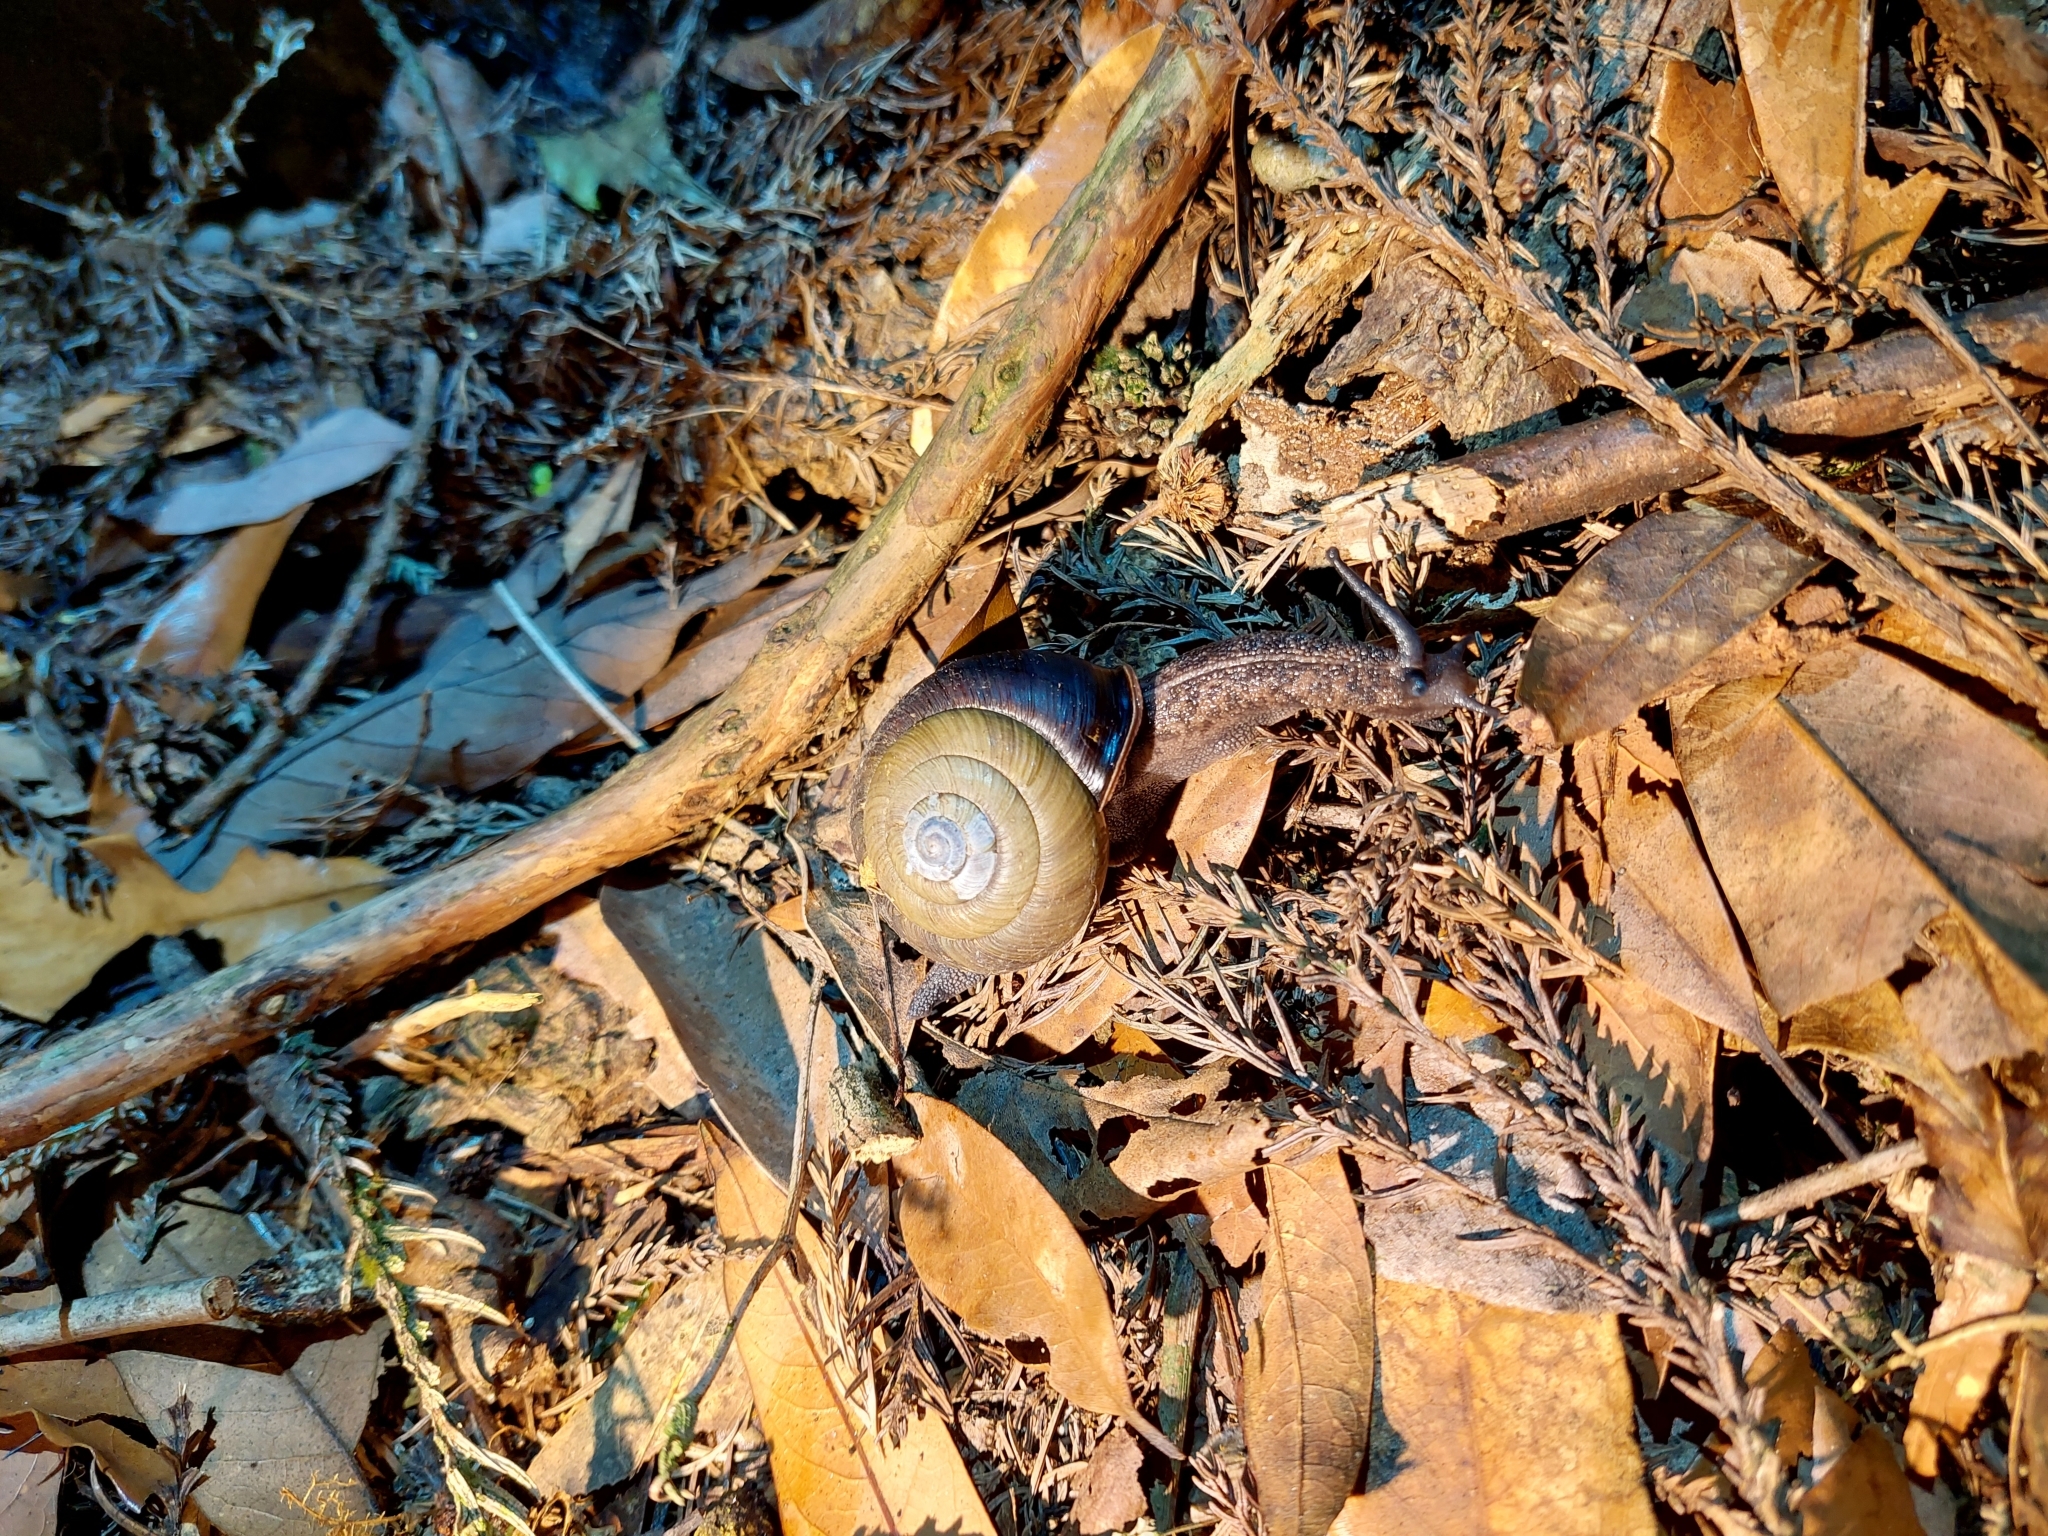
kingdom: Animalia
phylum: Mollusca
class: Gastropoda
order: Stylommatophora
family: Camaenidae
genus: Satsuma
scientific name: Satsuma bairdi
